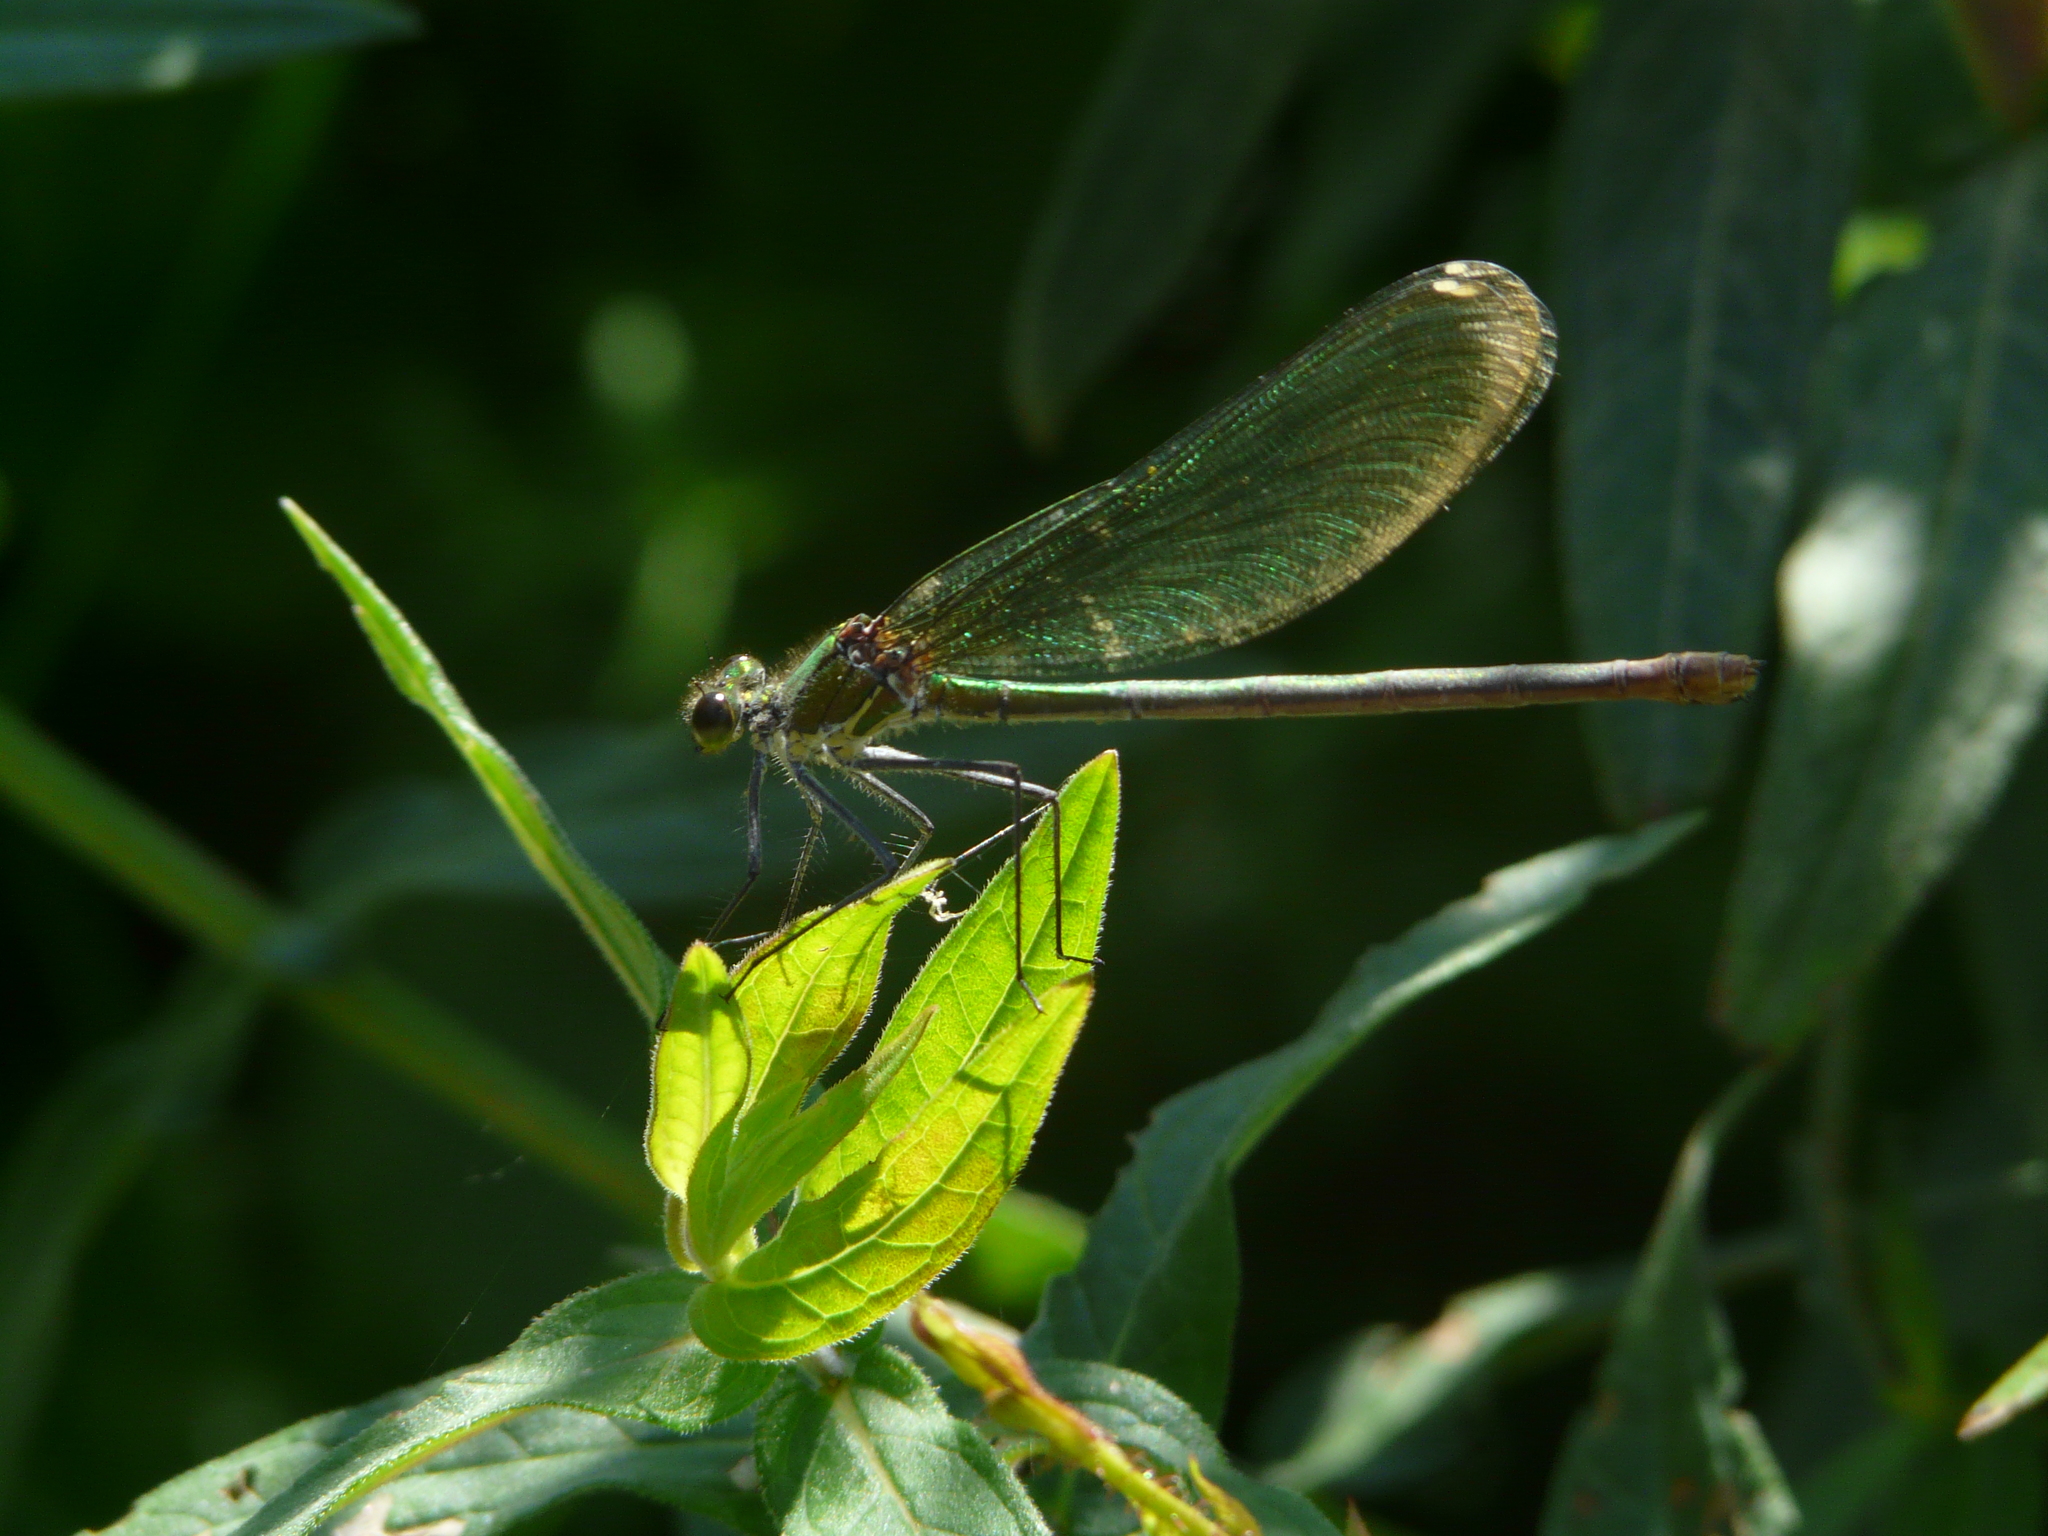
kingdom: Animalia
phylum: Arthropoda
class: Insecta
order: Odonata
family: Calopterygidae
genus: Calopteryx
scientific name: Calopteryx xanthostoma
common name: Western demoiselle
